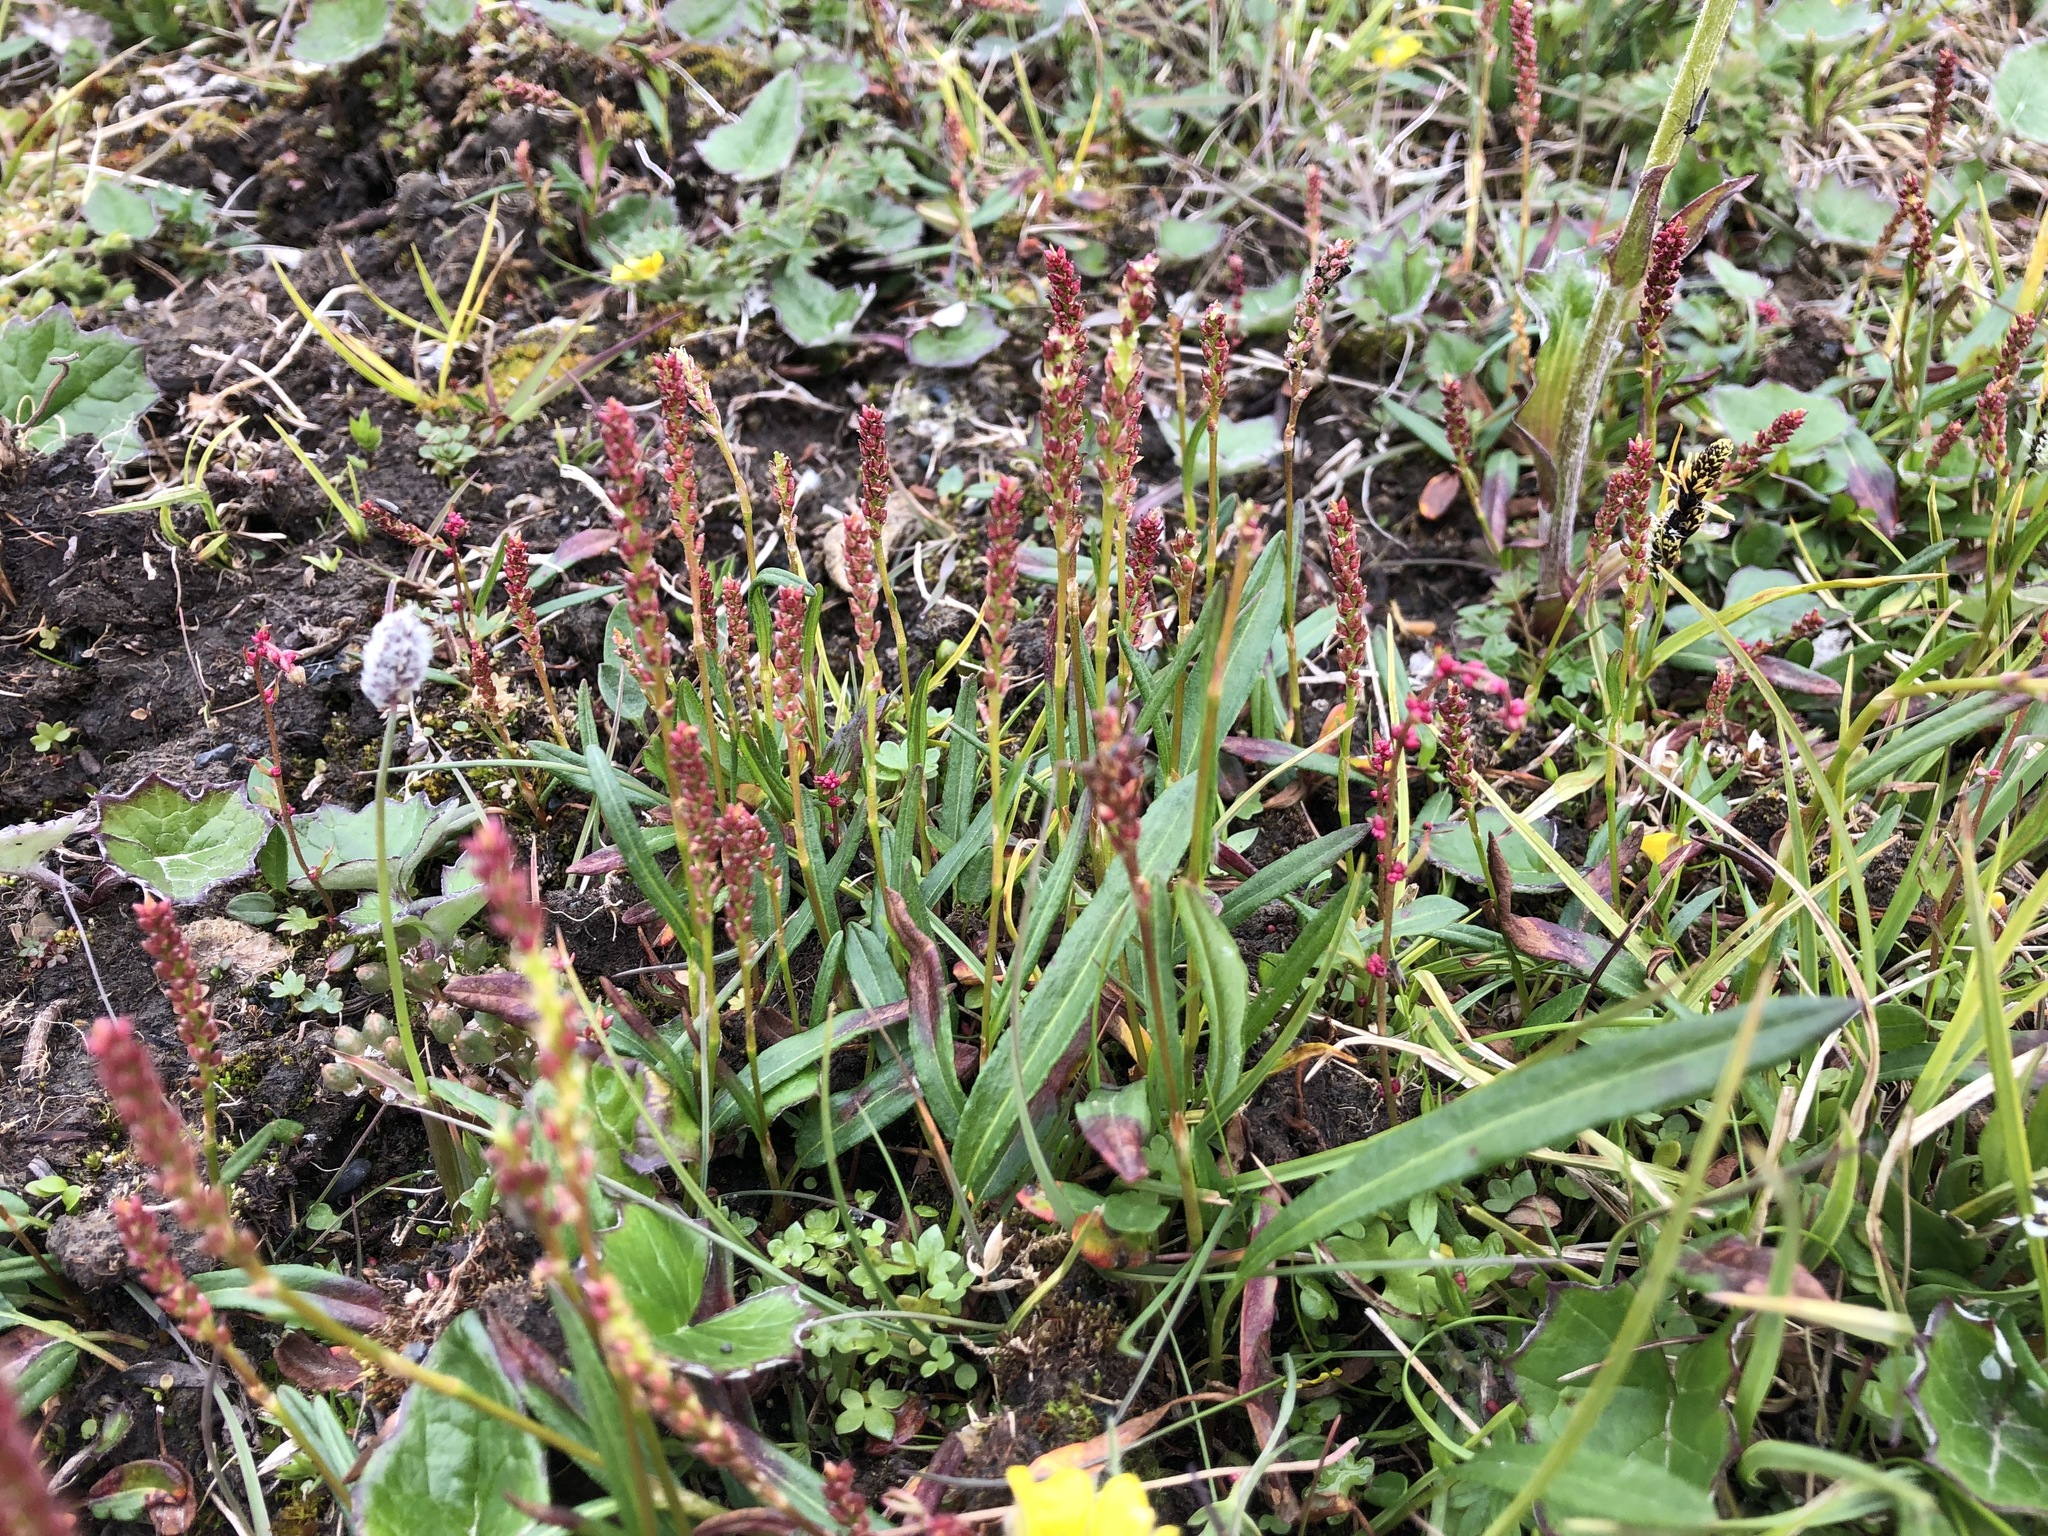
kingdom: Plantae
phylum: Tracheophyta
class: Magnoliopsida
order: Caryophyllales
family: Polygonaceae
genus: Bistorta
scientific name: Bistorta vivipara
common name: Alpine bistort
